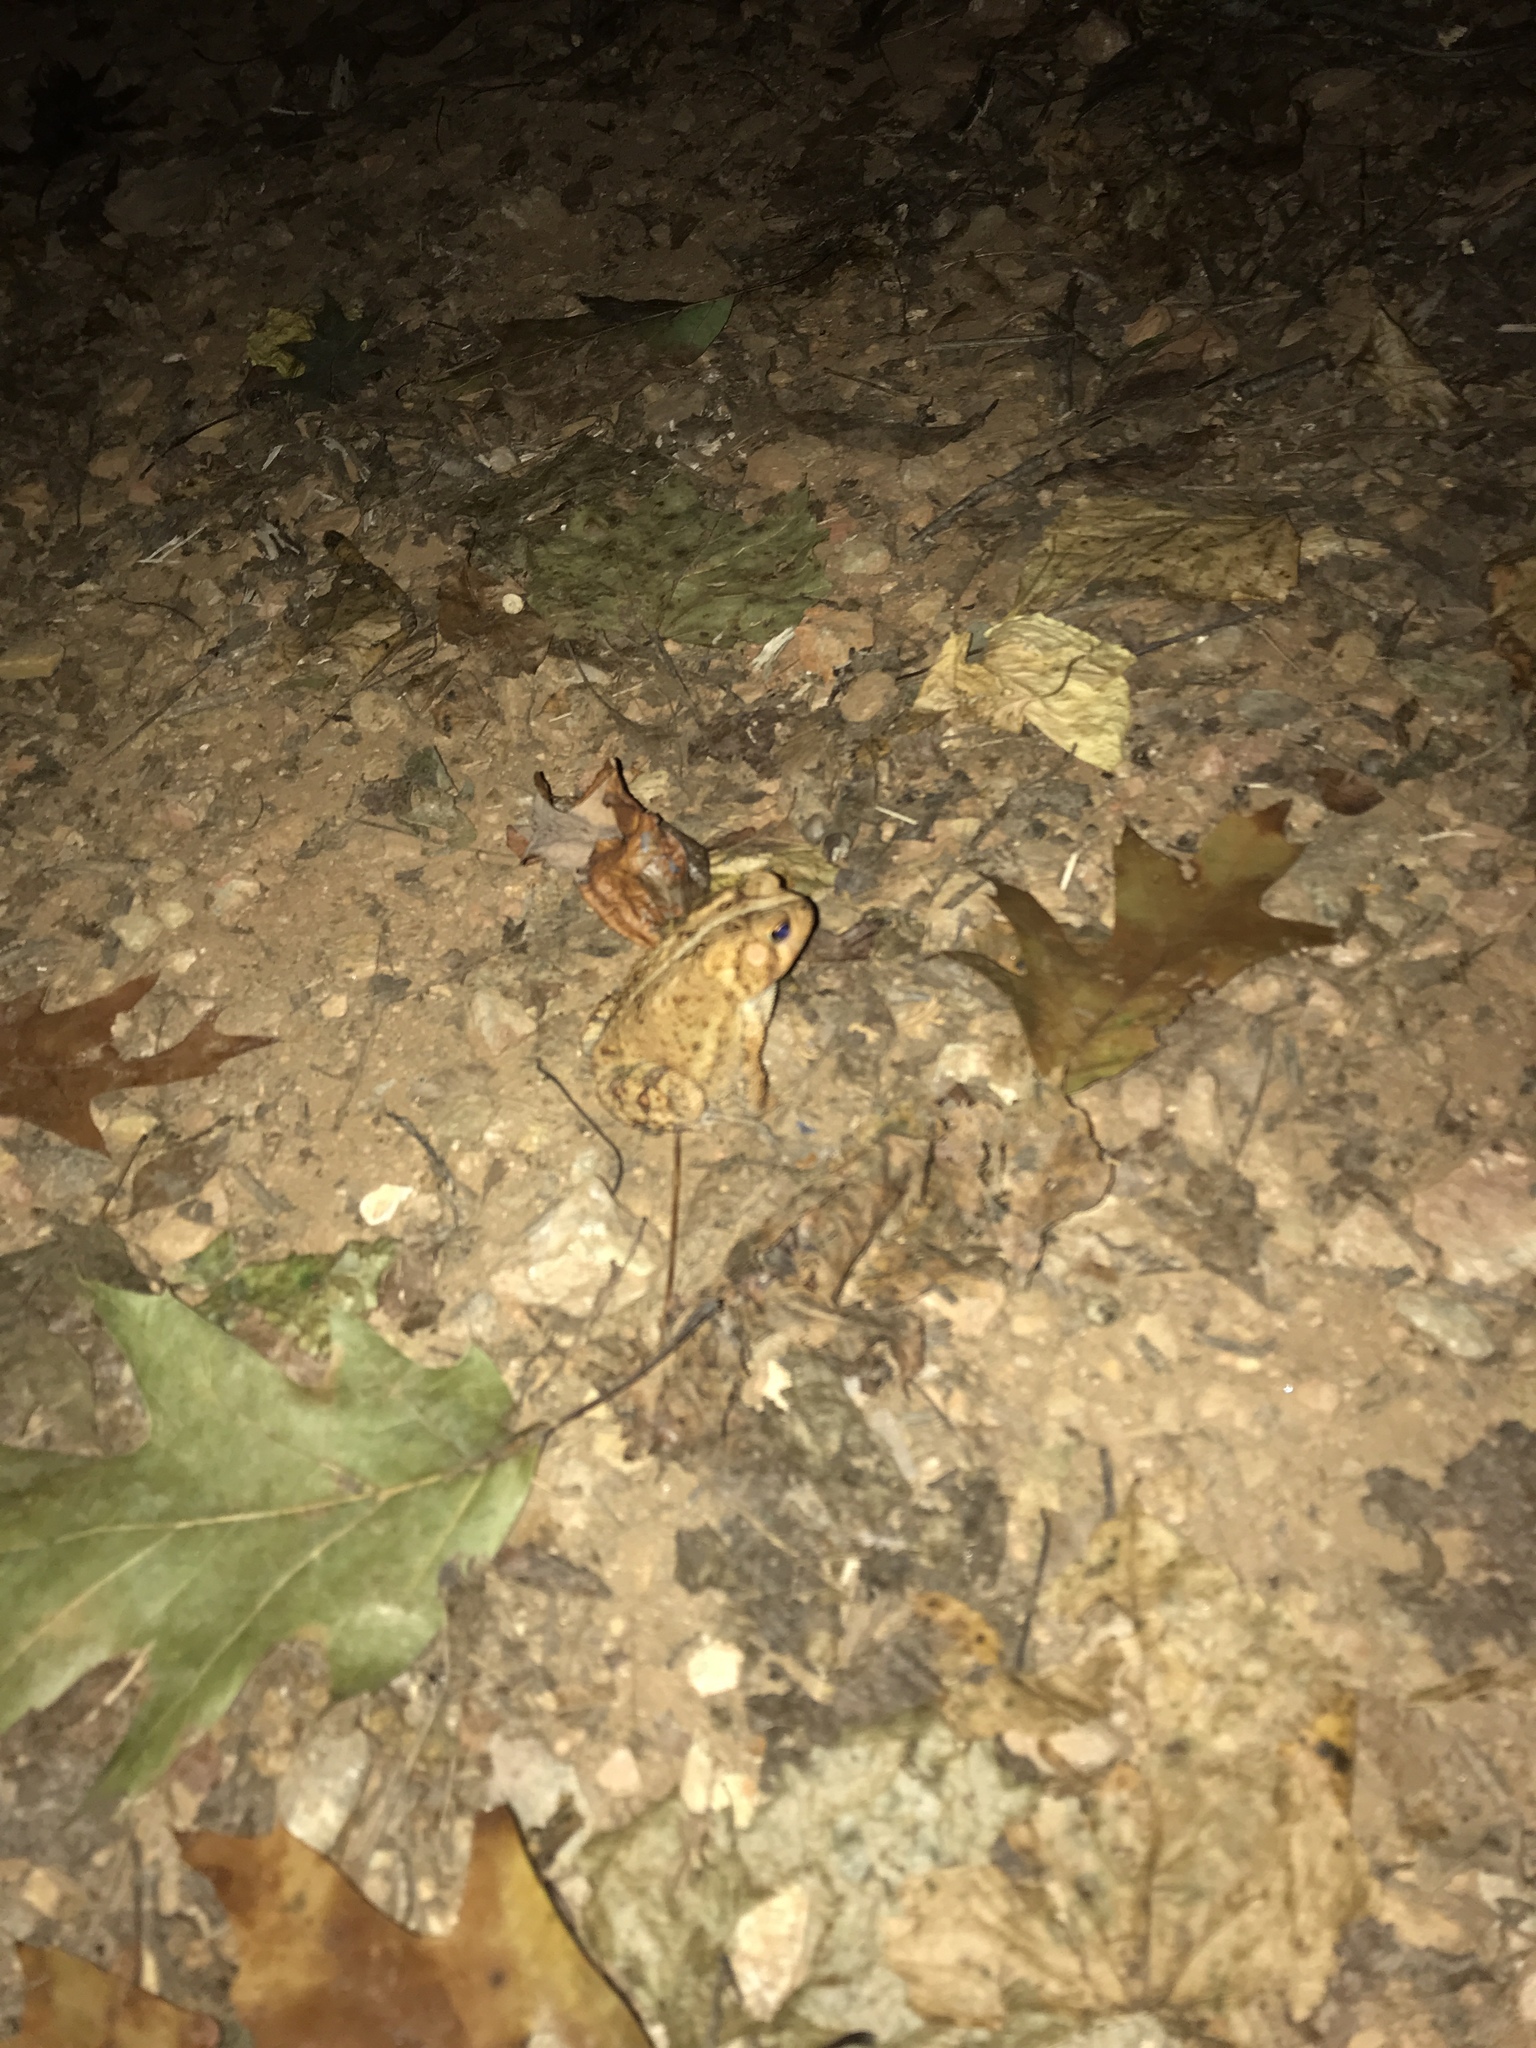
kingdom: Animalia
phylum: Chordata
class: Amphibia
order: Anura
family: Bufonidae
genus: Anaxyrus
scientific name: Anaxyrus americanus
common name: American toad
